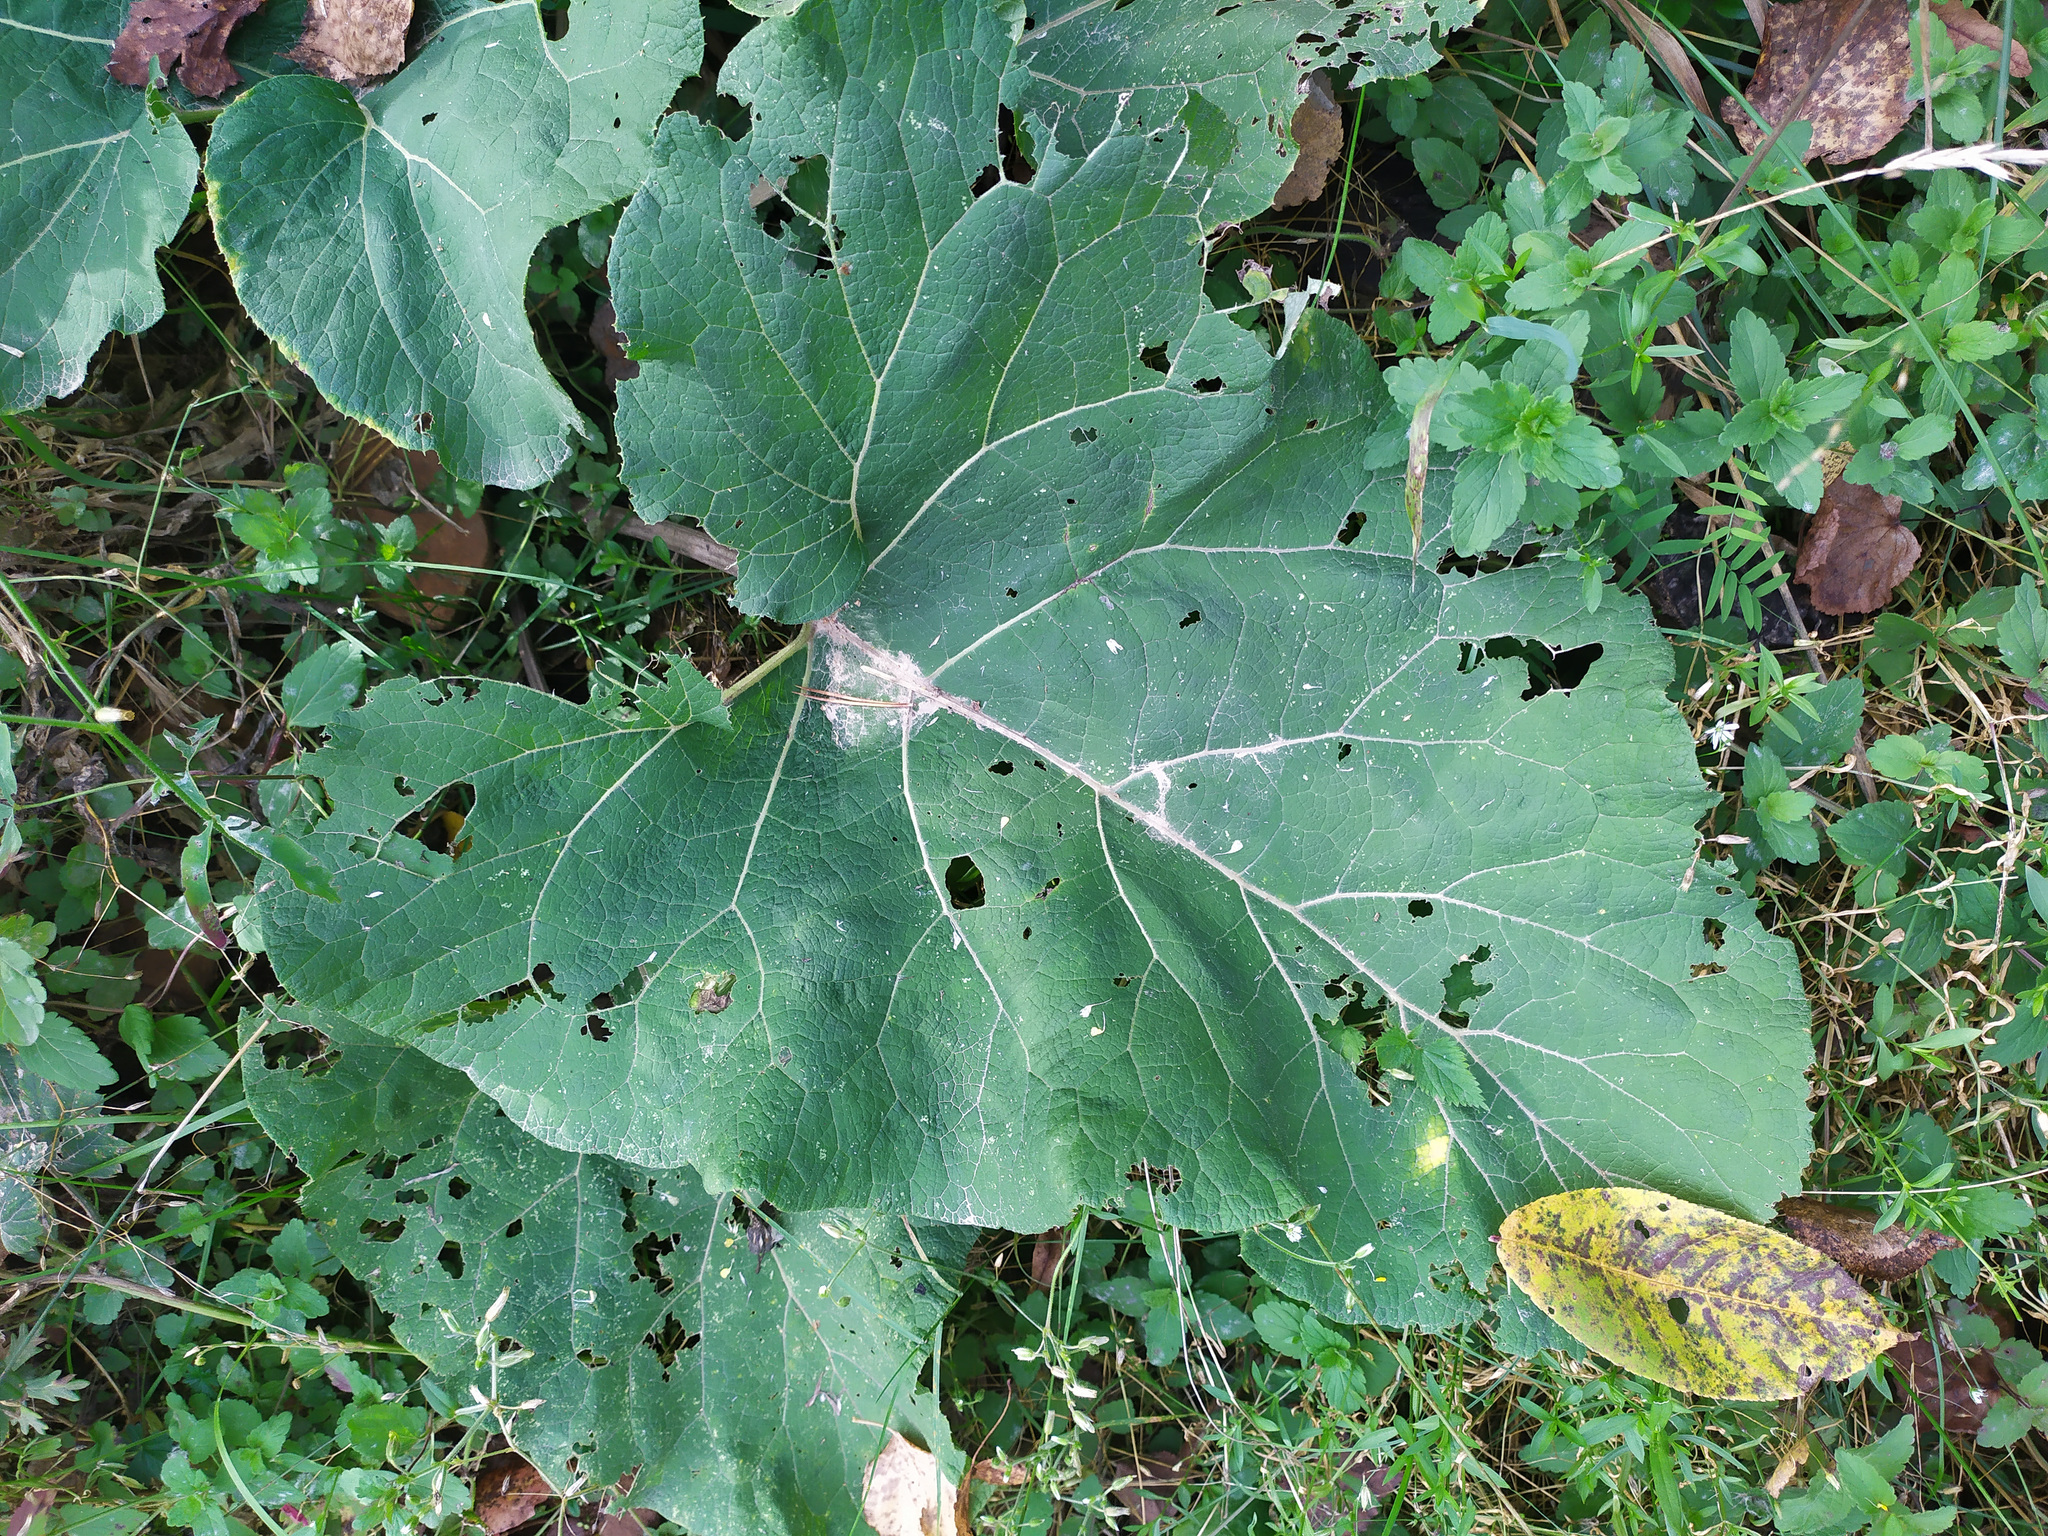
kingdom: Plantae
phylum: Tracheophyta
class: Magnoliopsida
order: Asterales
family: Asteraceae
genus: Arctium
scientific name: Arctium tomentosum
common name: Woolly burdock
